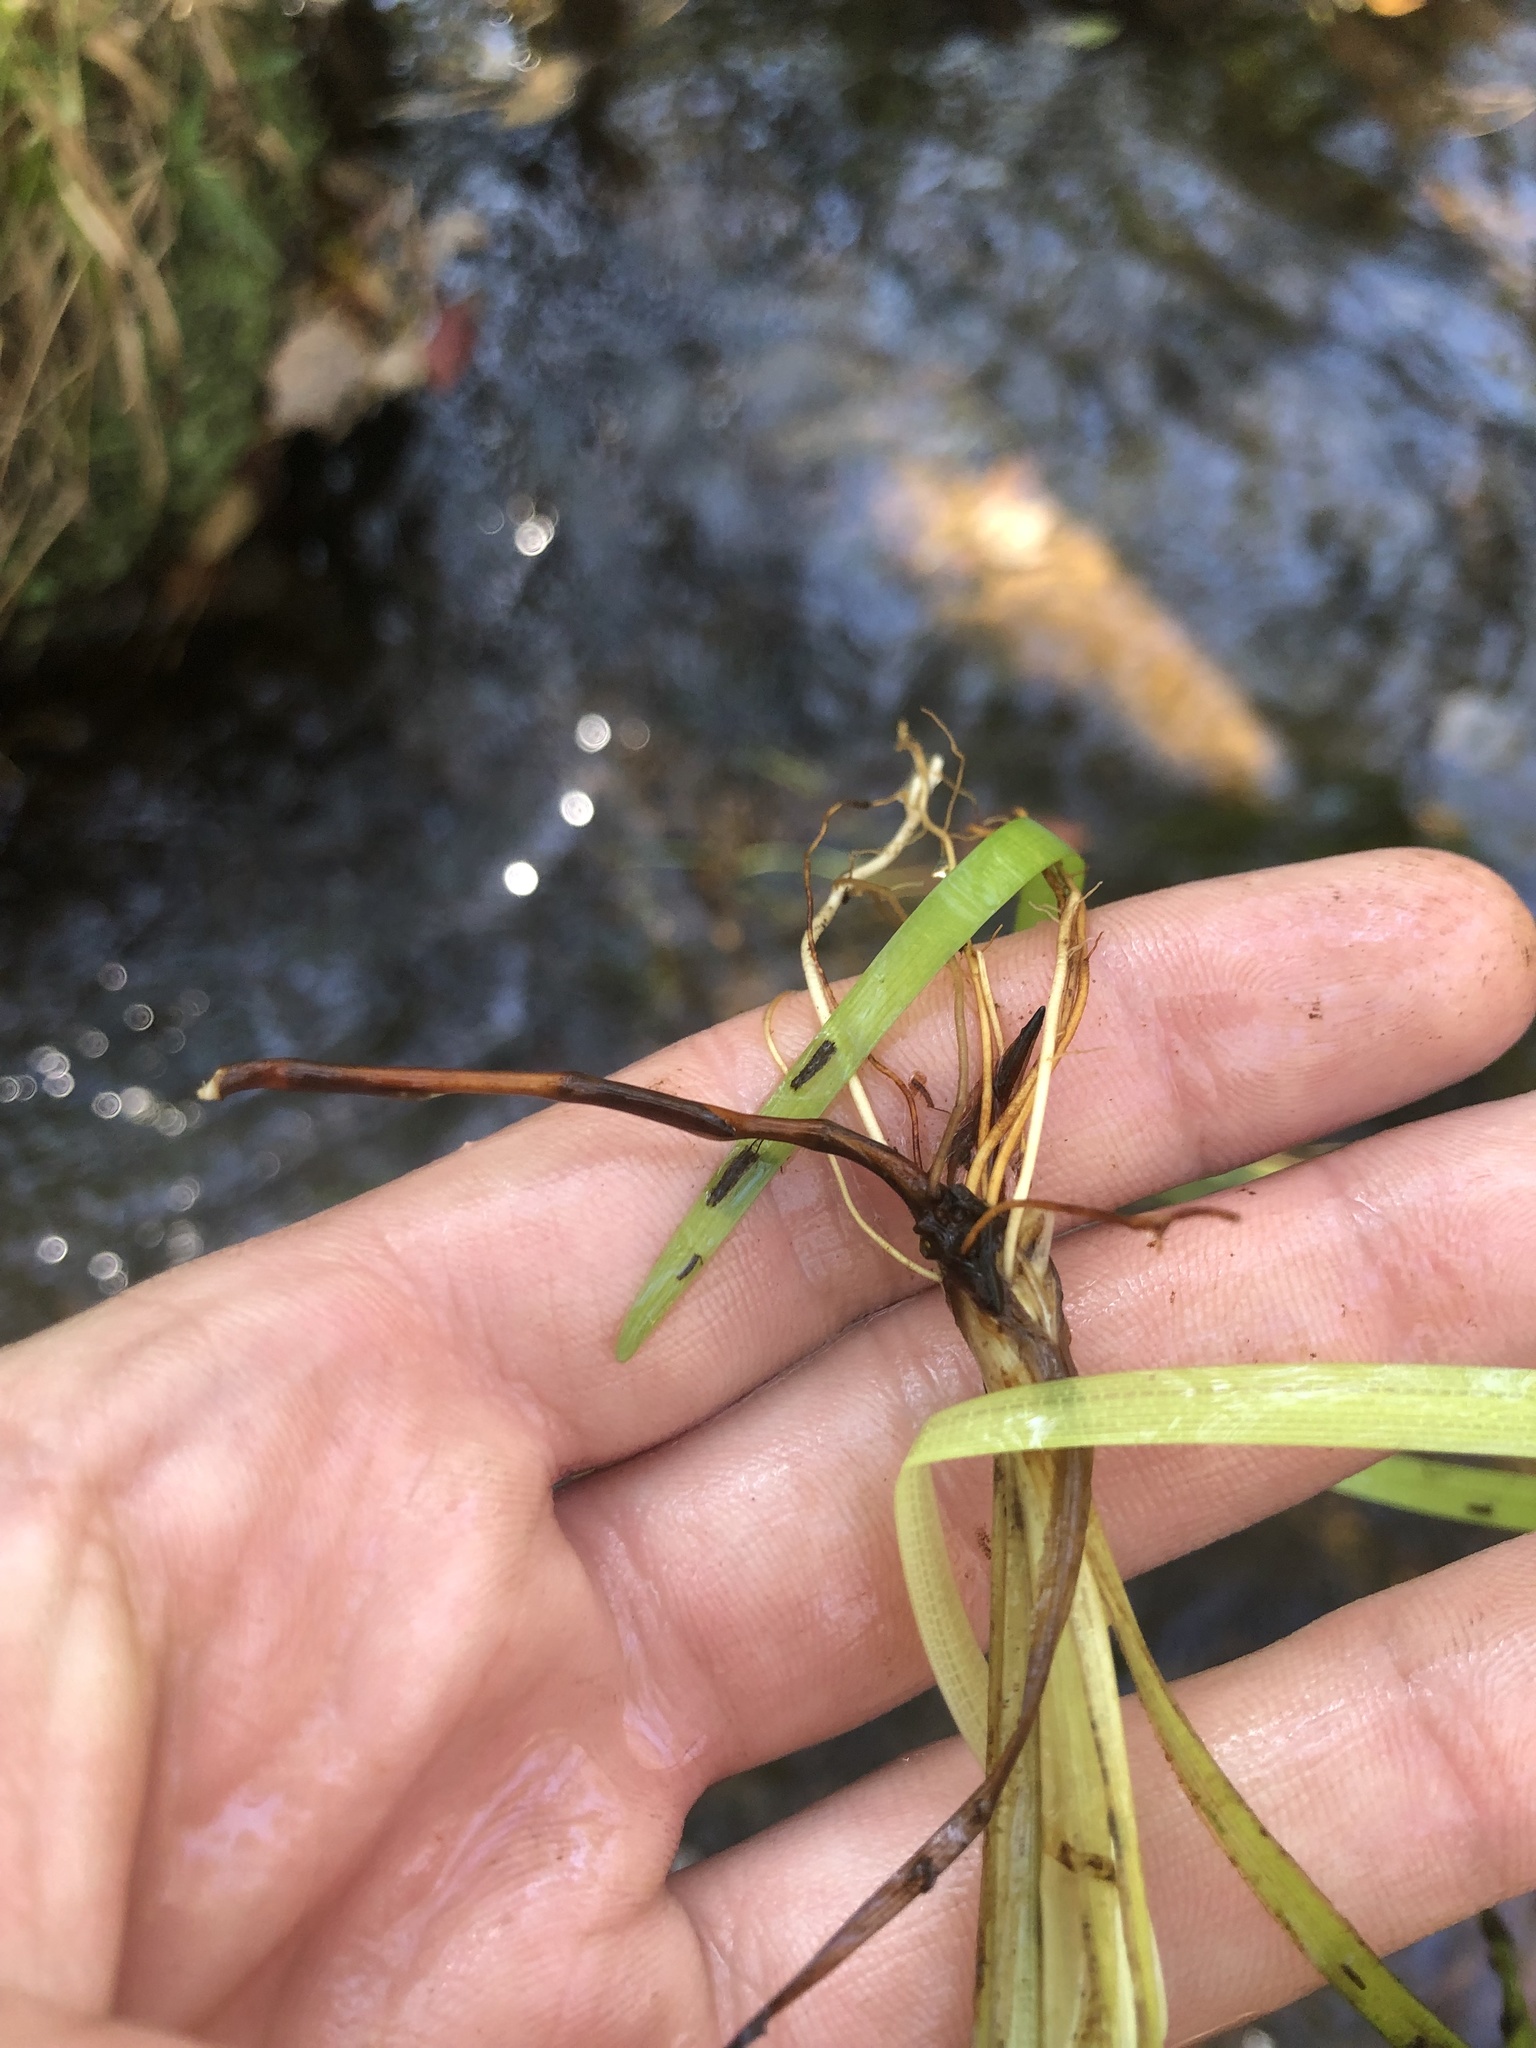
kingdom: Plantae
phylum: Tracheophyta
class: Liliopsida
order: Poales
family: Typhaceae
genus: Sparganium
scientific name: Sparganium americanum
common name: American burreed
